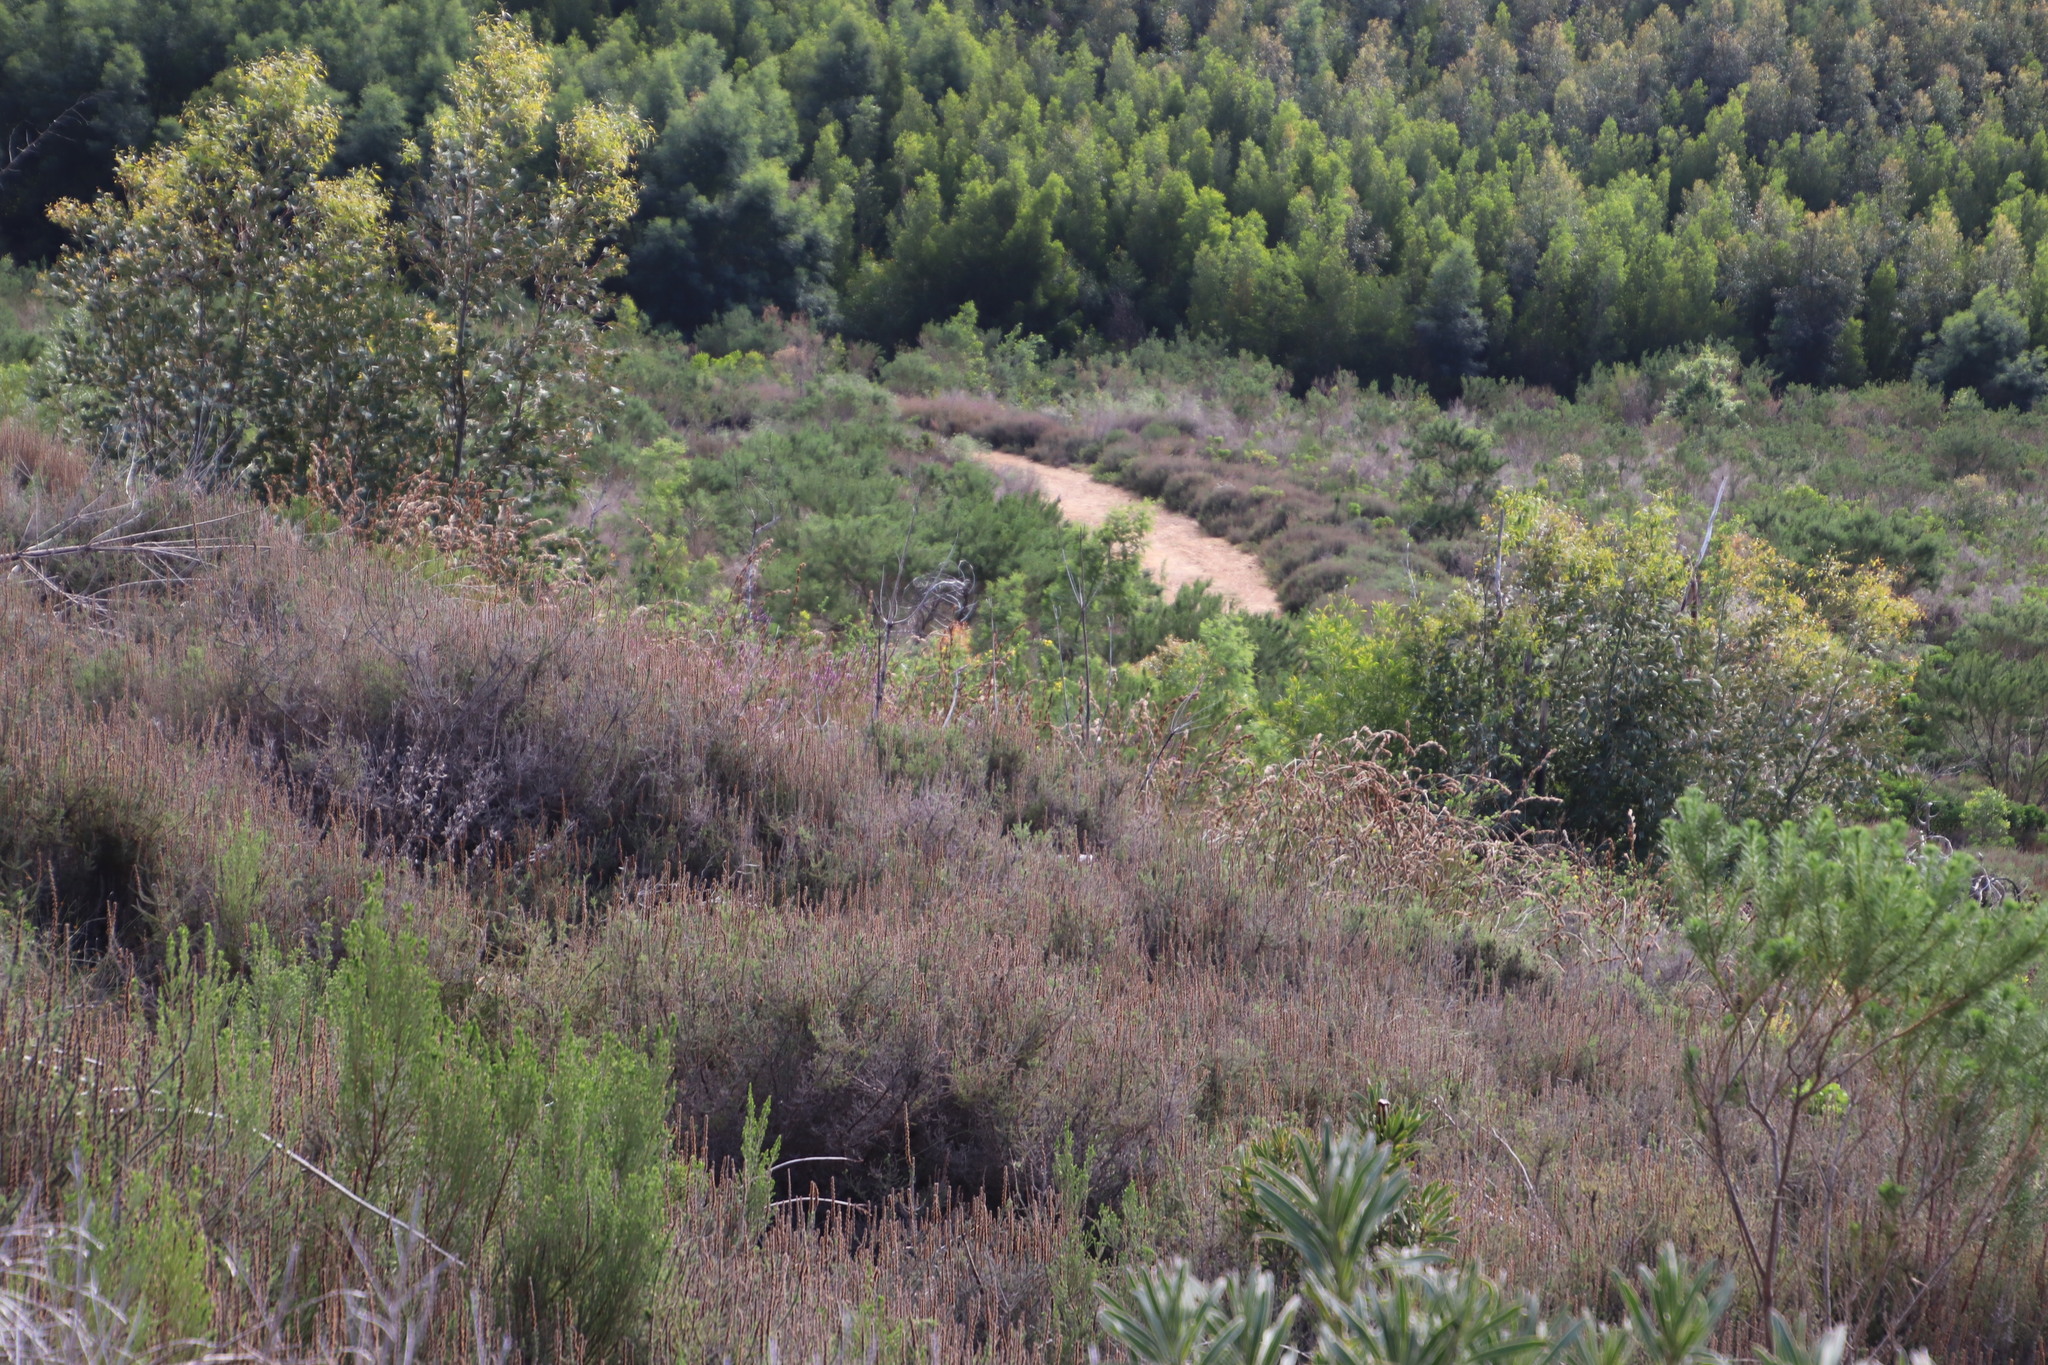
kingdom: Plantae
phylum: Tracheophyta
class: Magnoliopsida
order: Asterales
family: Asteraceae
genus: Seriphium
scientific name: Seriphium cinereum
